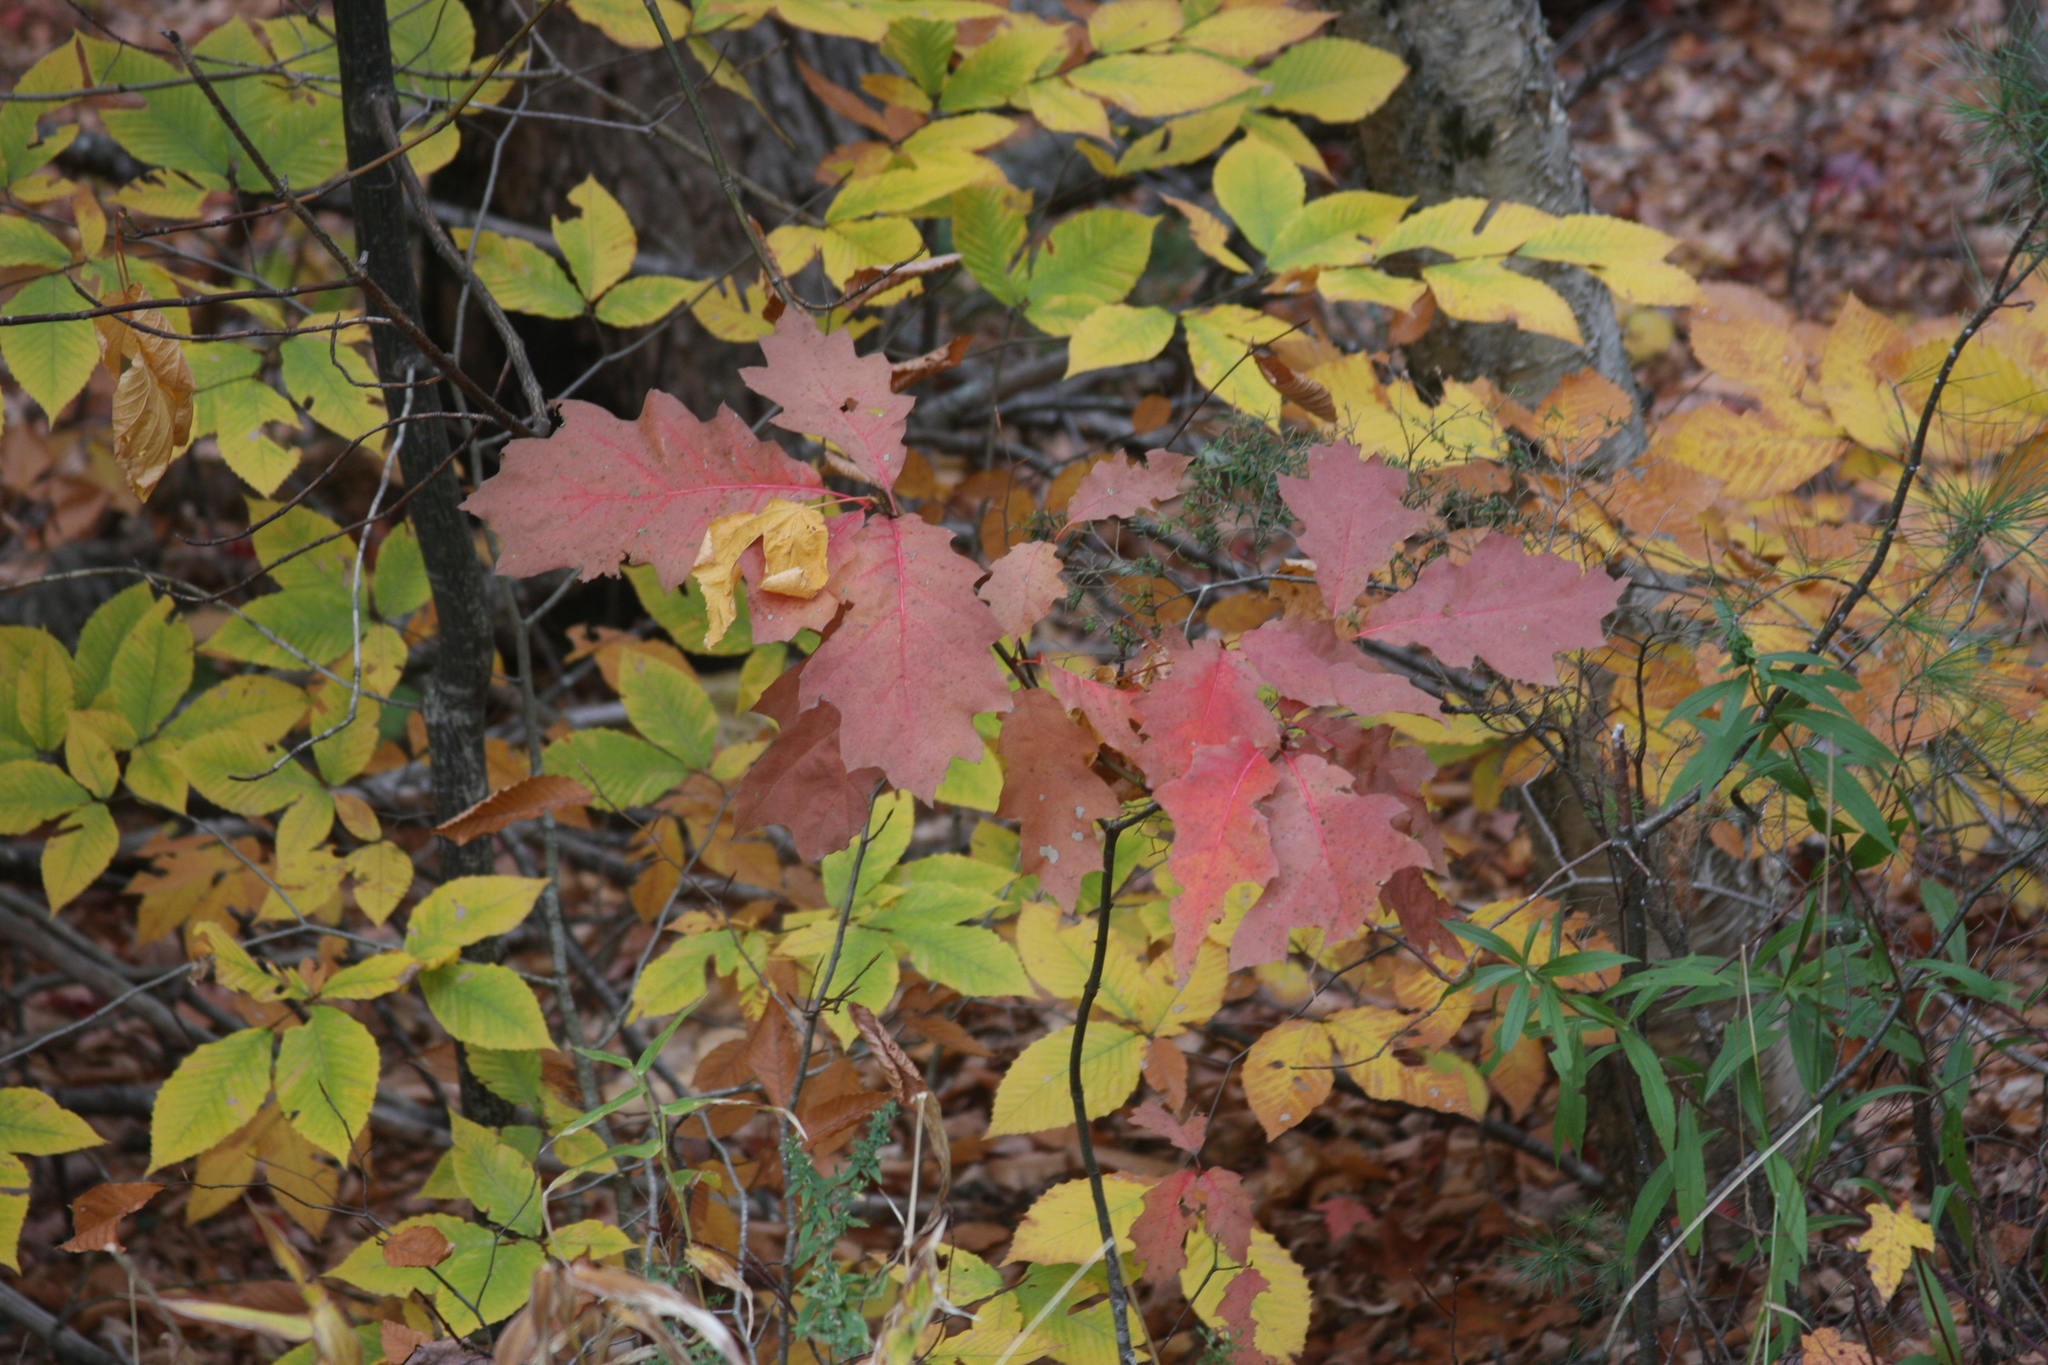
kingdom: Plantae
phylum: Tracheophyta
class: Magnoliopsida
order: Fagales
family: Fagaceae
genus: Quercus
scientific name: Quercus rubra
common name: Red oak
